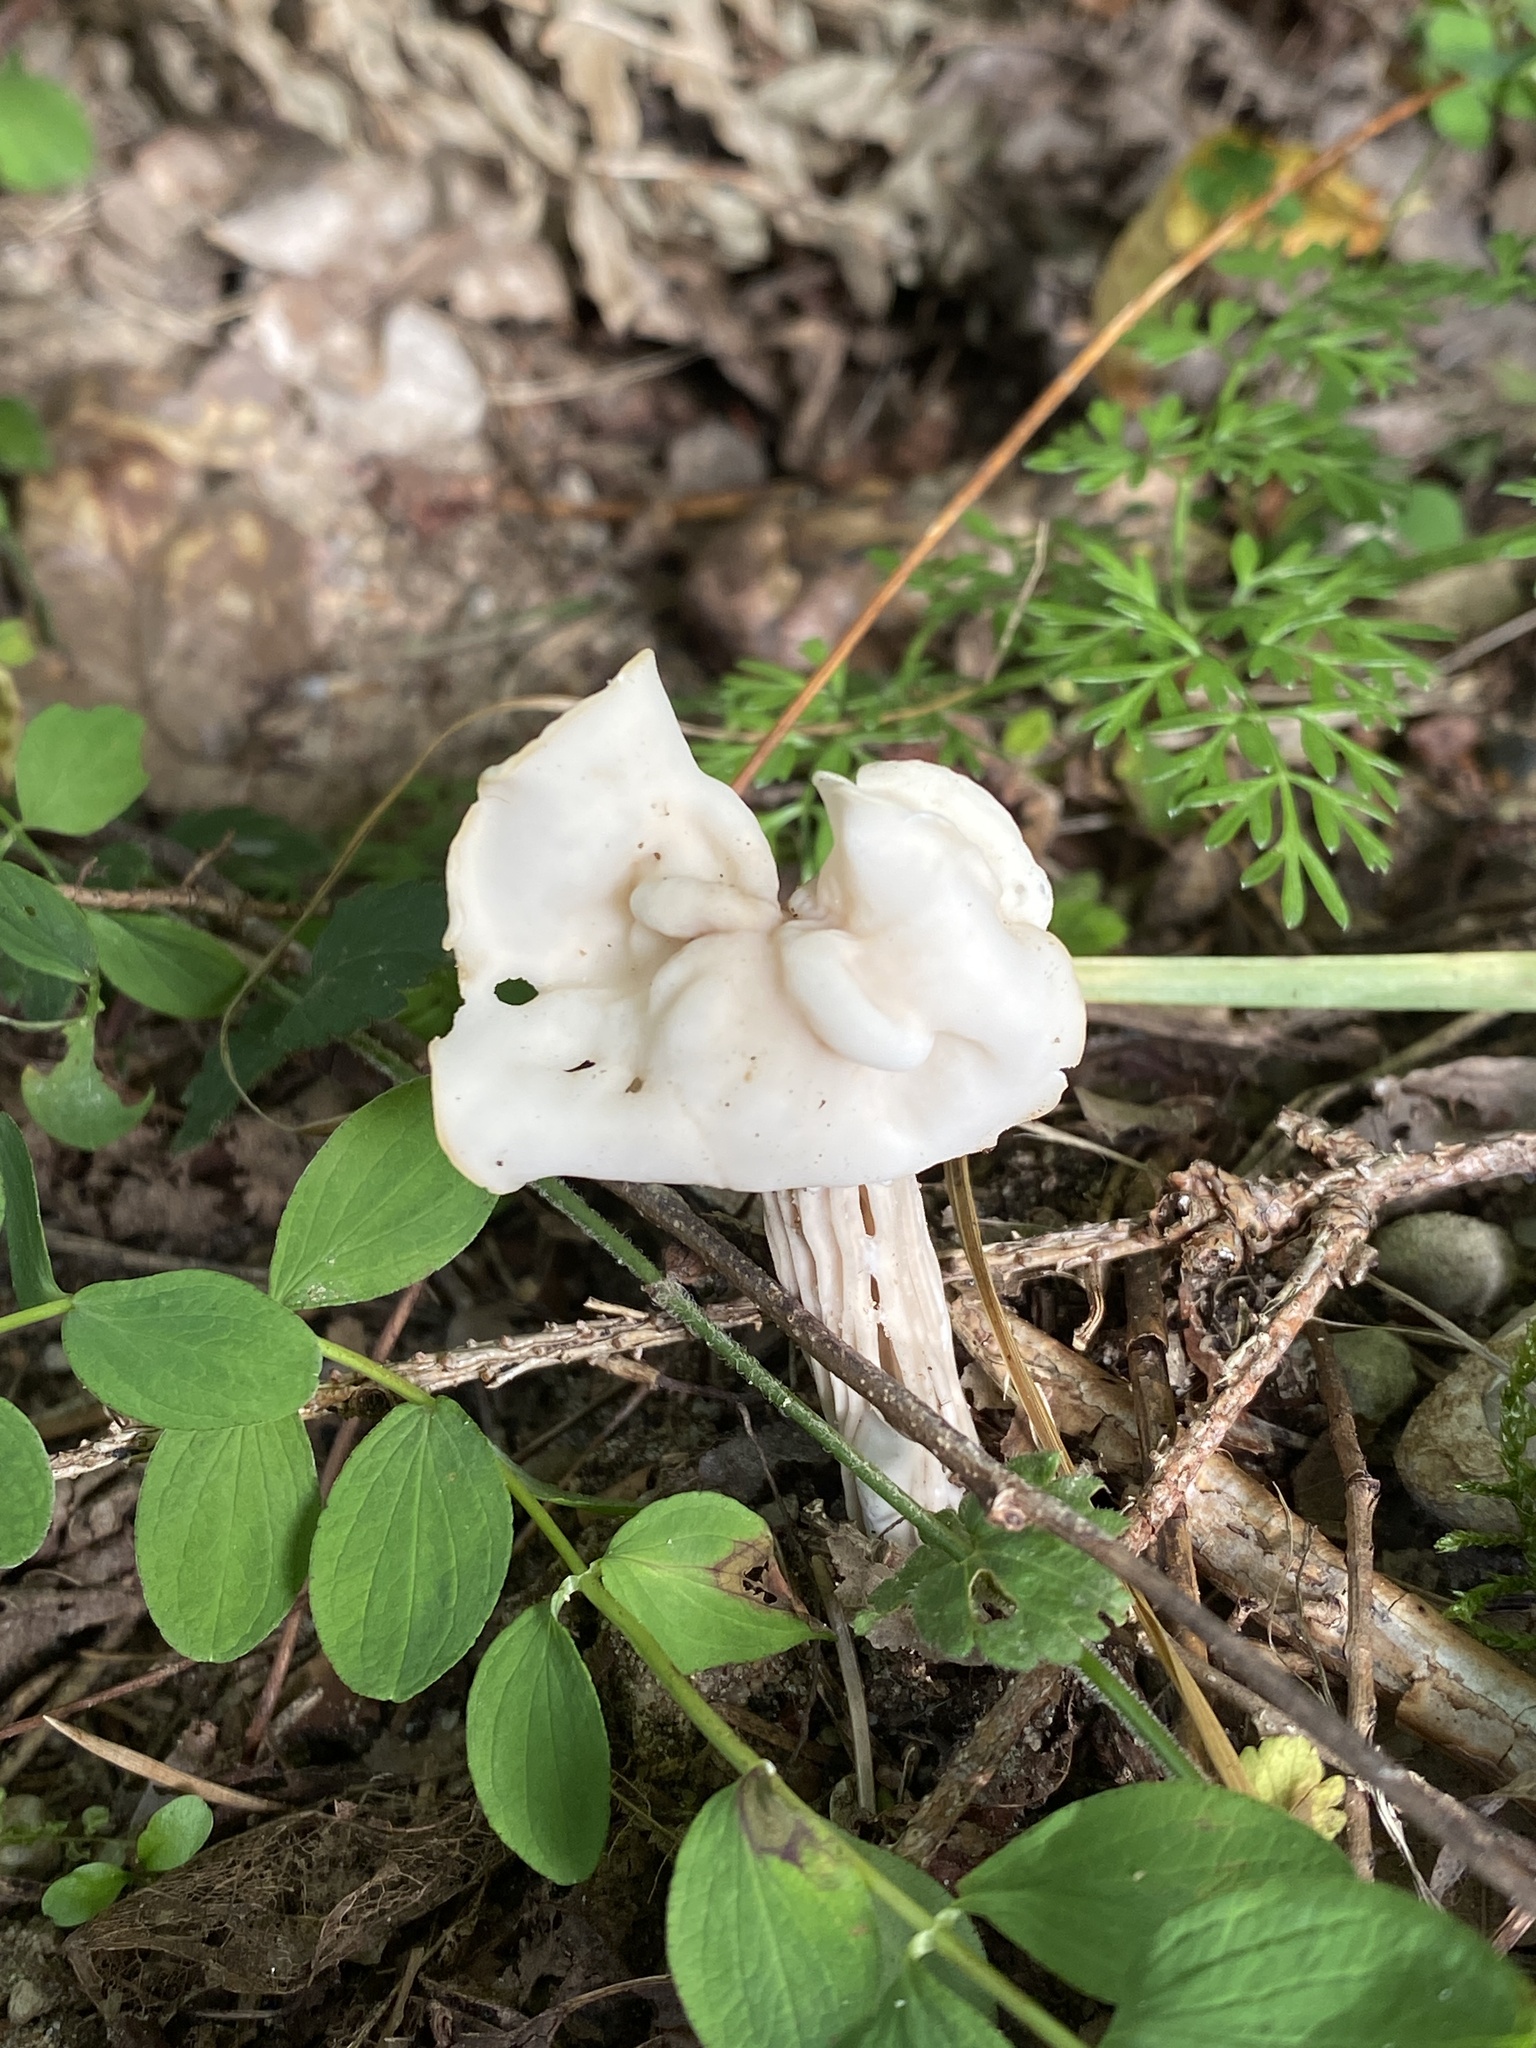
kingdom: Fungi
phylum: Ascomycota
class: Pezizomycetes
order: Pezizales
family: Helvellaceae
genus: Helvella
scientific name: Helvella crispa
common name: White saddle
